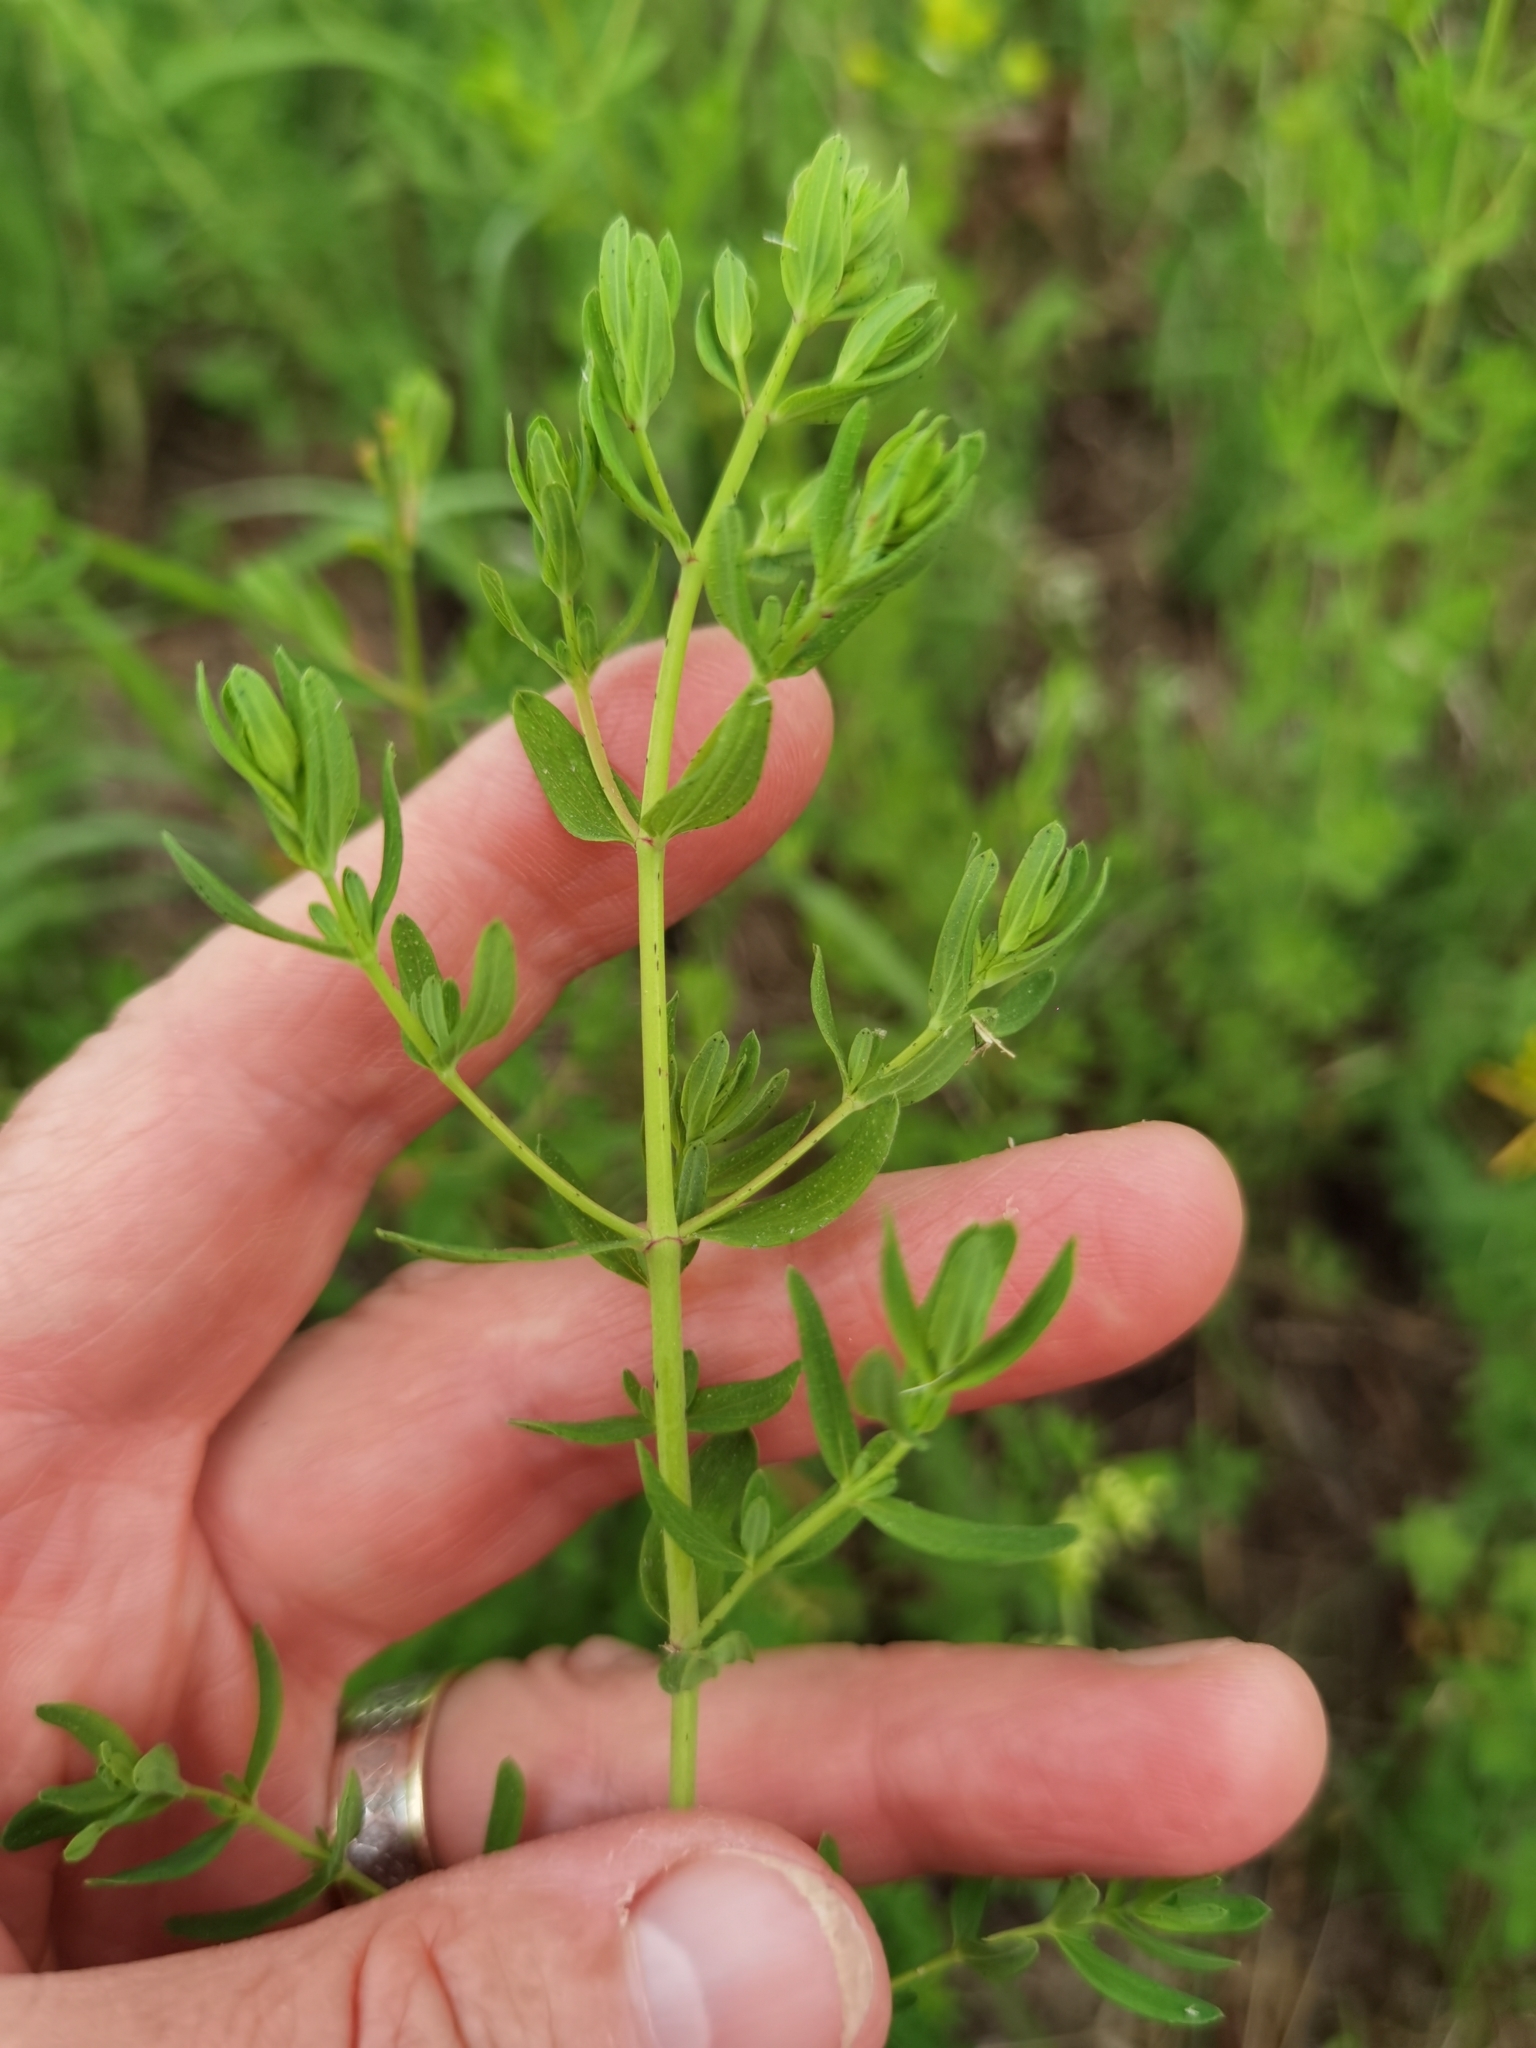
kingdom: Plantae
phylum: Tracheophyta
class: Magnoliopsida
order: Malpighiales
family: Hypericaceae
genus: Hypericum
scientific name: Hypericum perforatum
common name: Common st. johnswort
